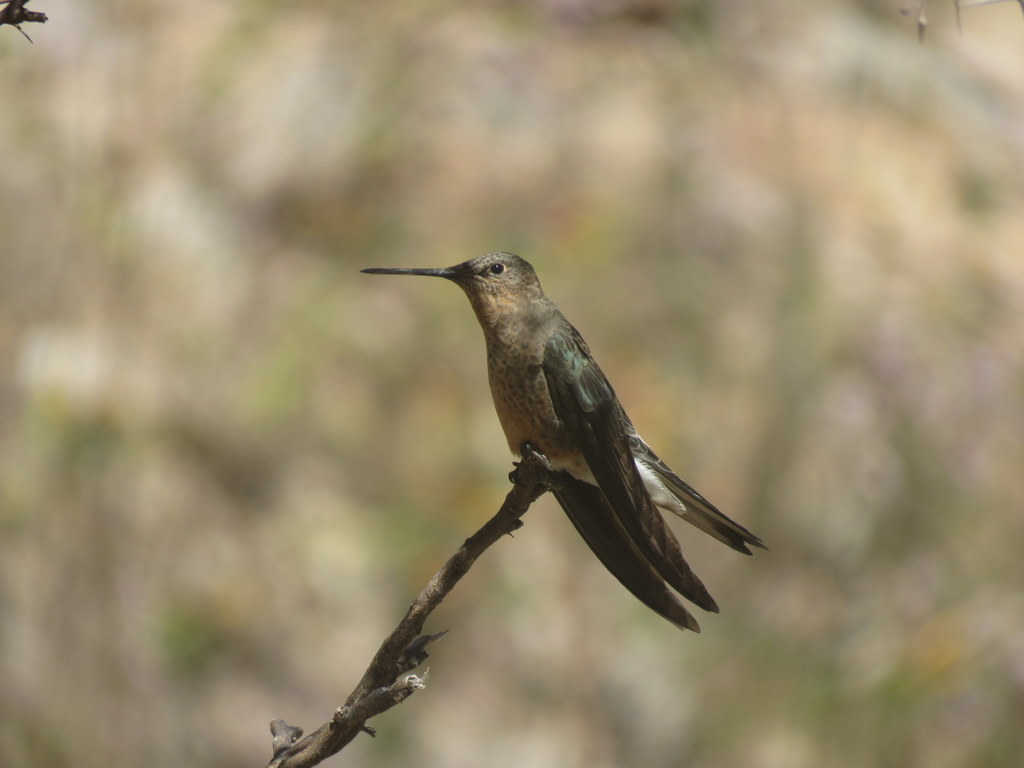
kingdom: Animalia
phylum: Chordata
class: Aves
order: Apodiformes
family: Trochilidae
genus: Patagona
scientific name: Patagona gigas
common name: Giant hummingbird
